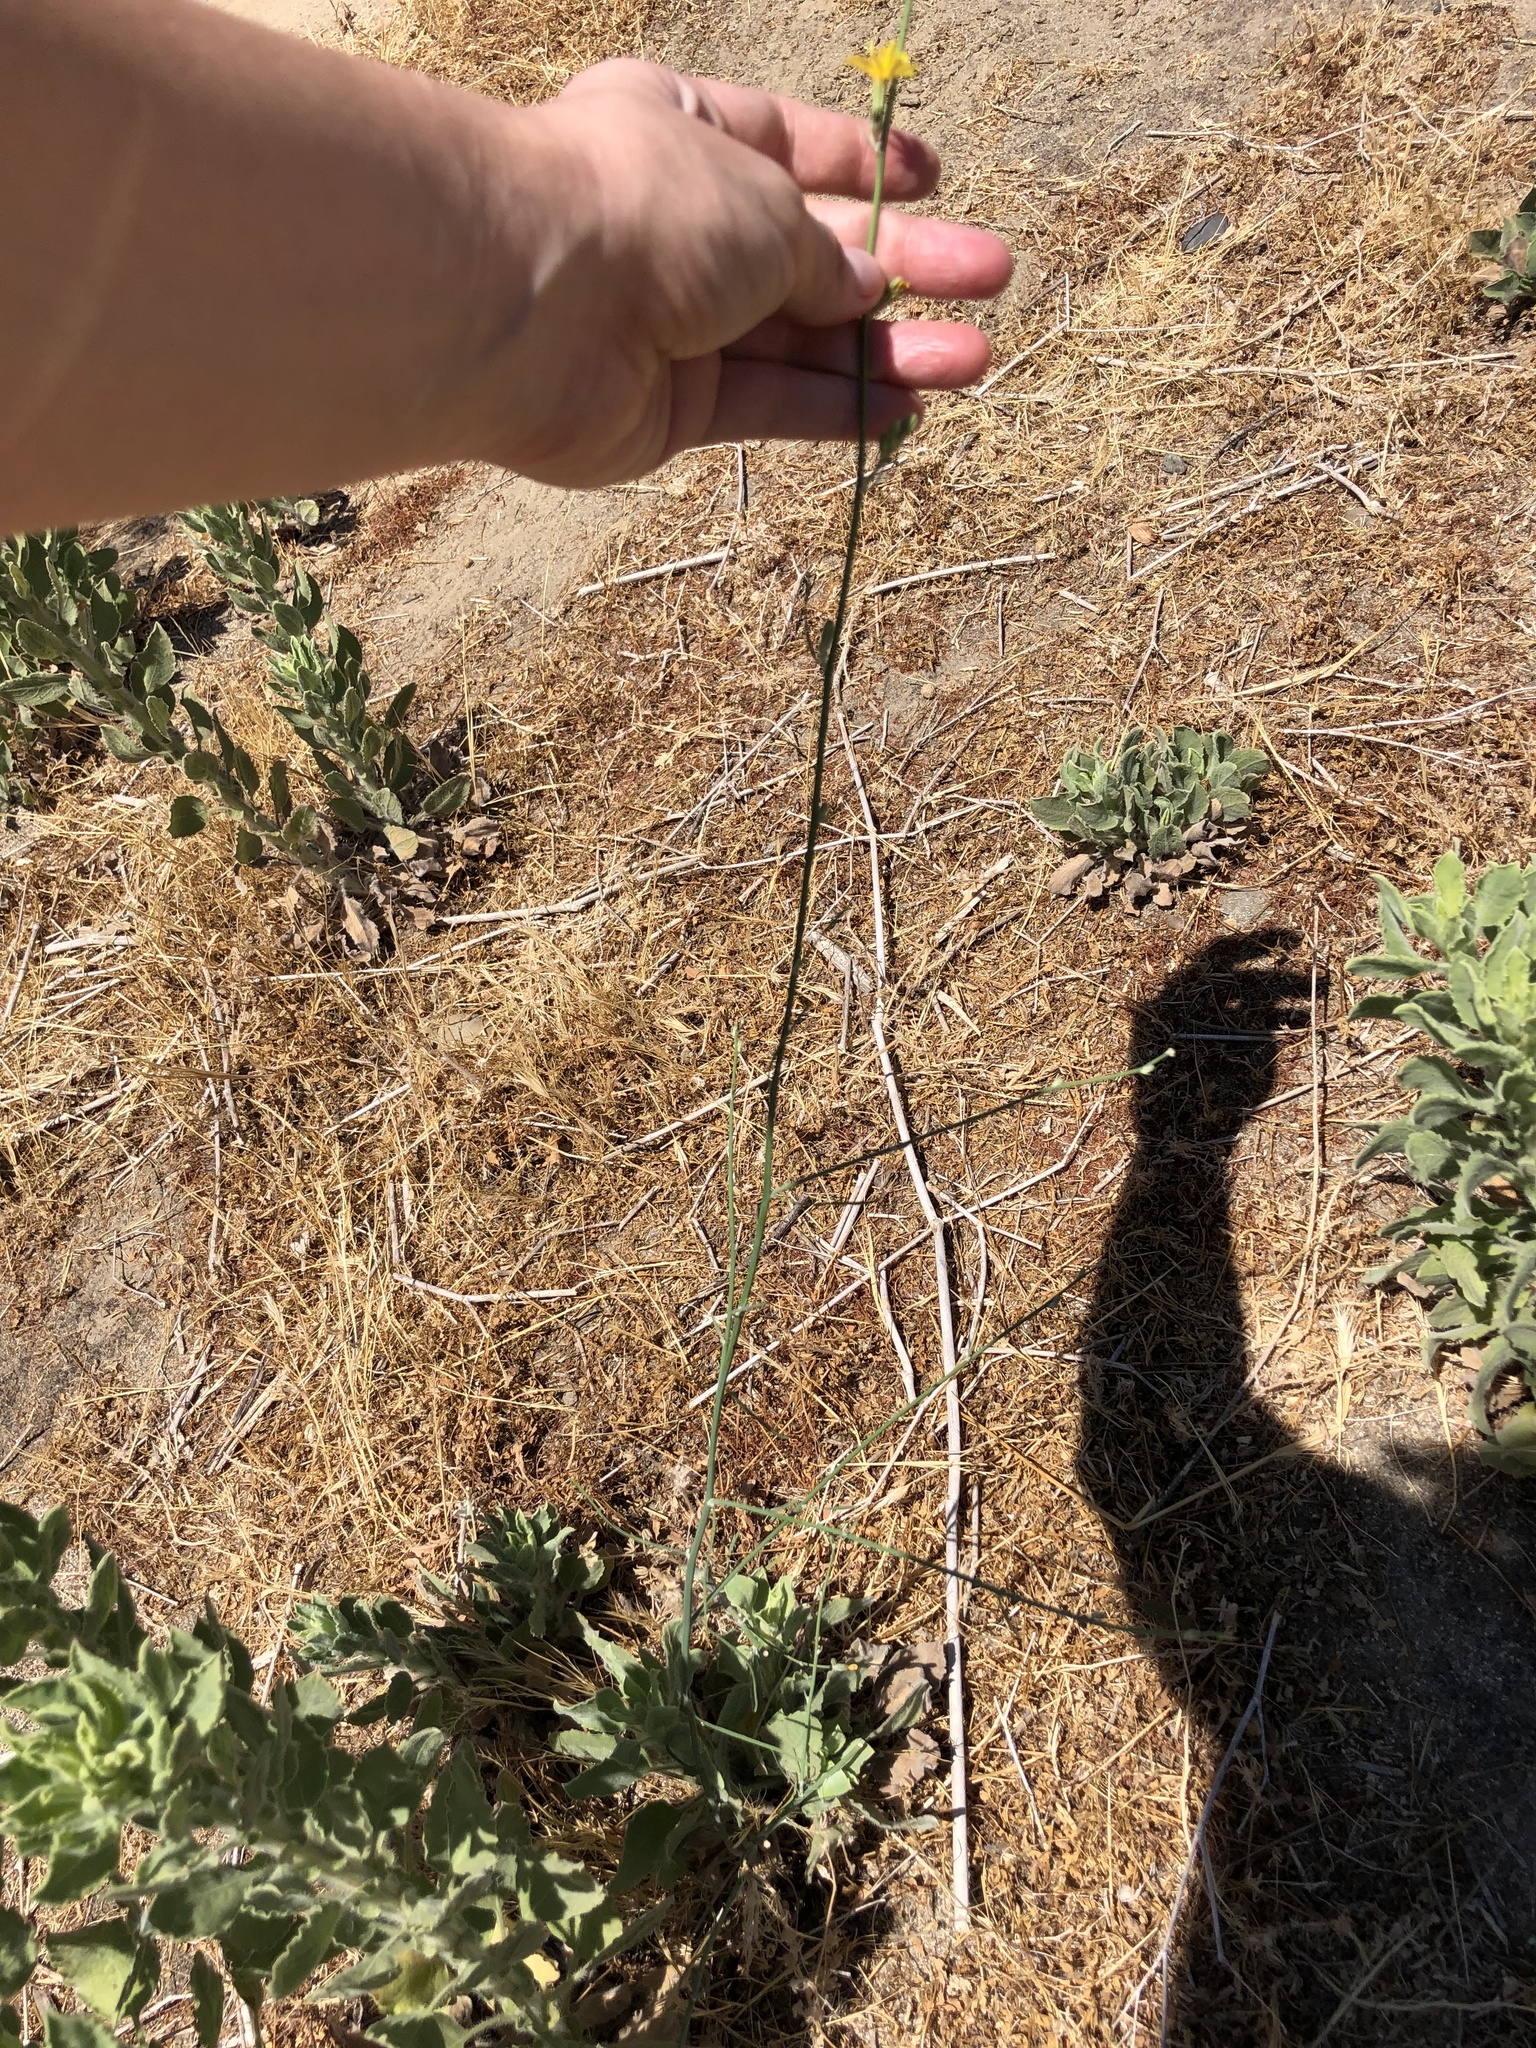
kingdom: Plantae
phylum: Tracheophyta
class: Magnoliopsida
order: Asterales
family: Asteraceae
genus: Chondrilla
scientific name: Chondrilla juncea
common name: Skeleton weed
